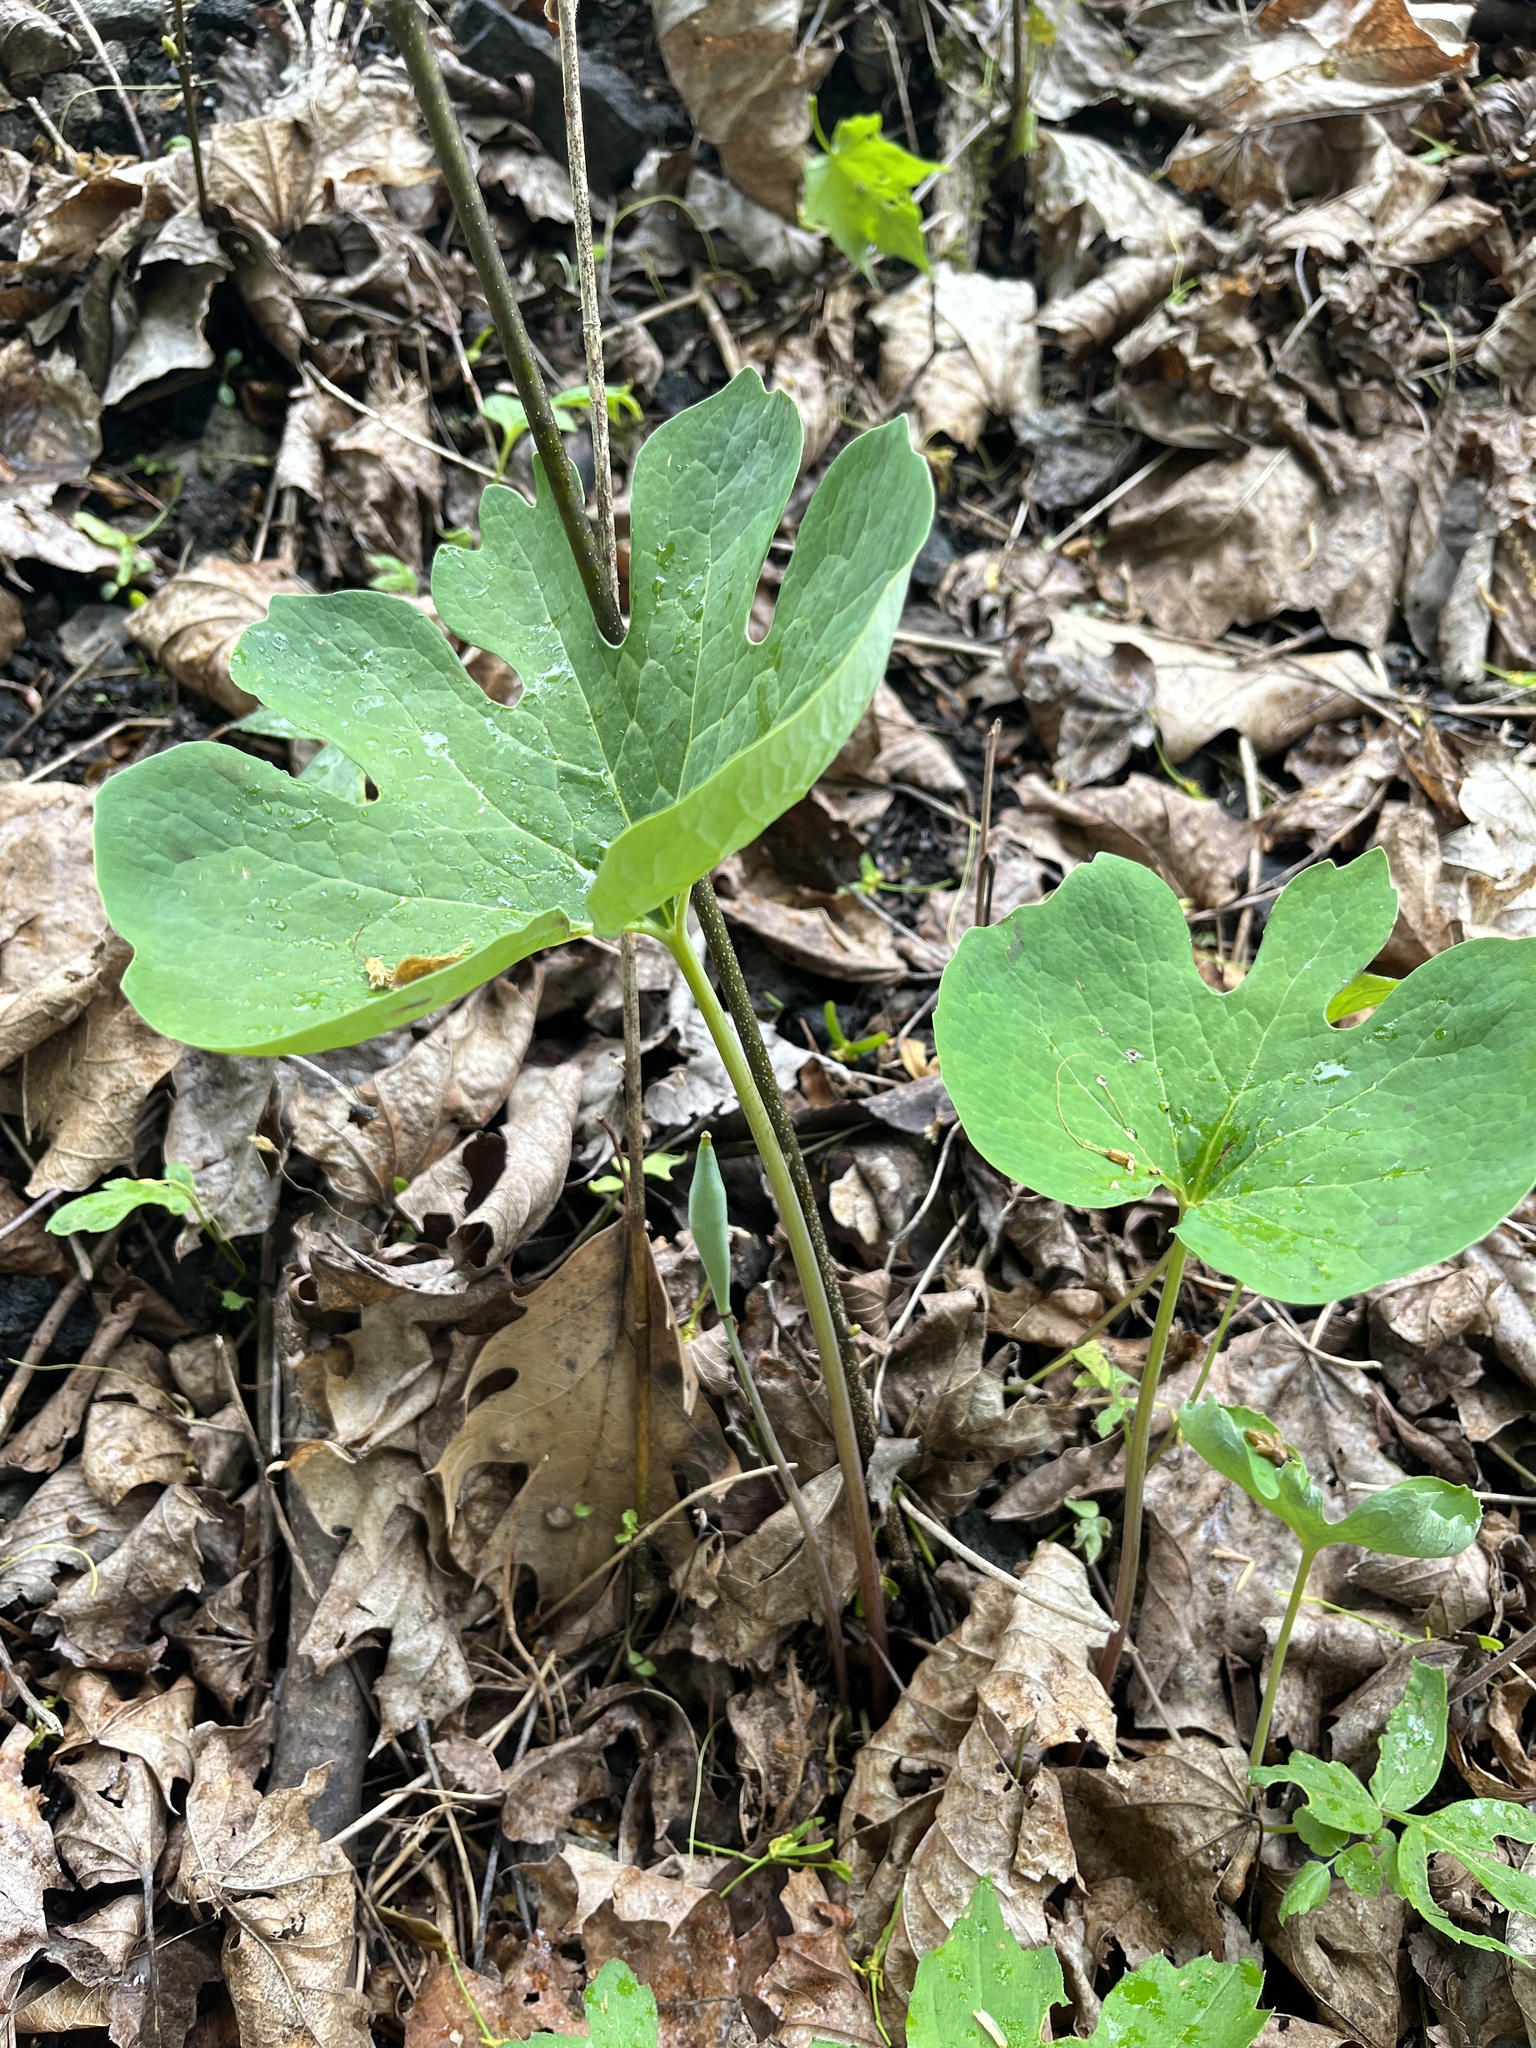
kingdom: Plantae
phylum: Tracheophyta
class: Magnoliopsida
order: Ranunculales
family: Papaveraceae
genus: Sanguinaria
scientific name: Sanguinaria canadensis
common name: Bloodroot
